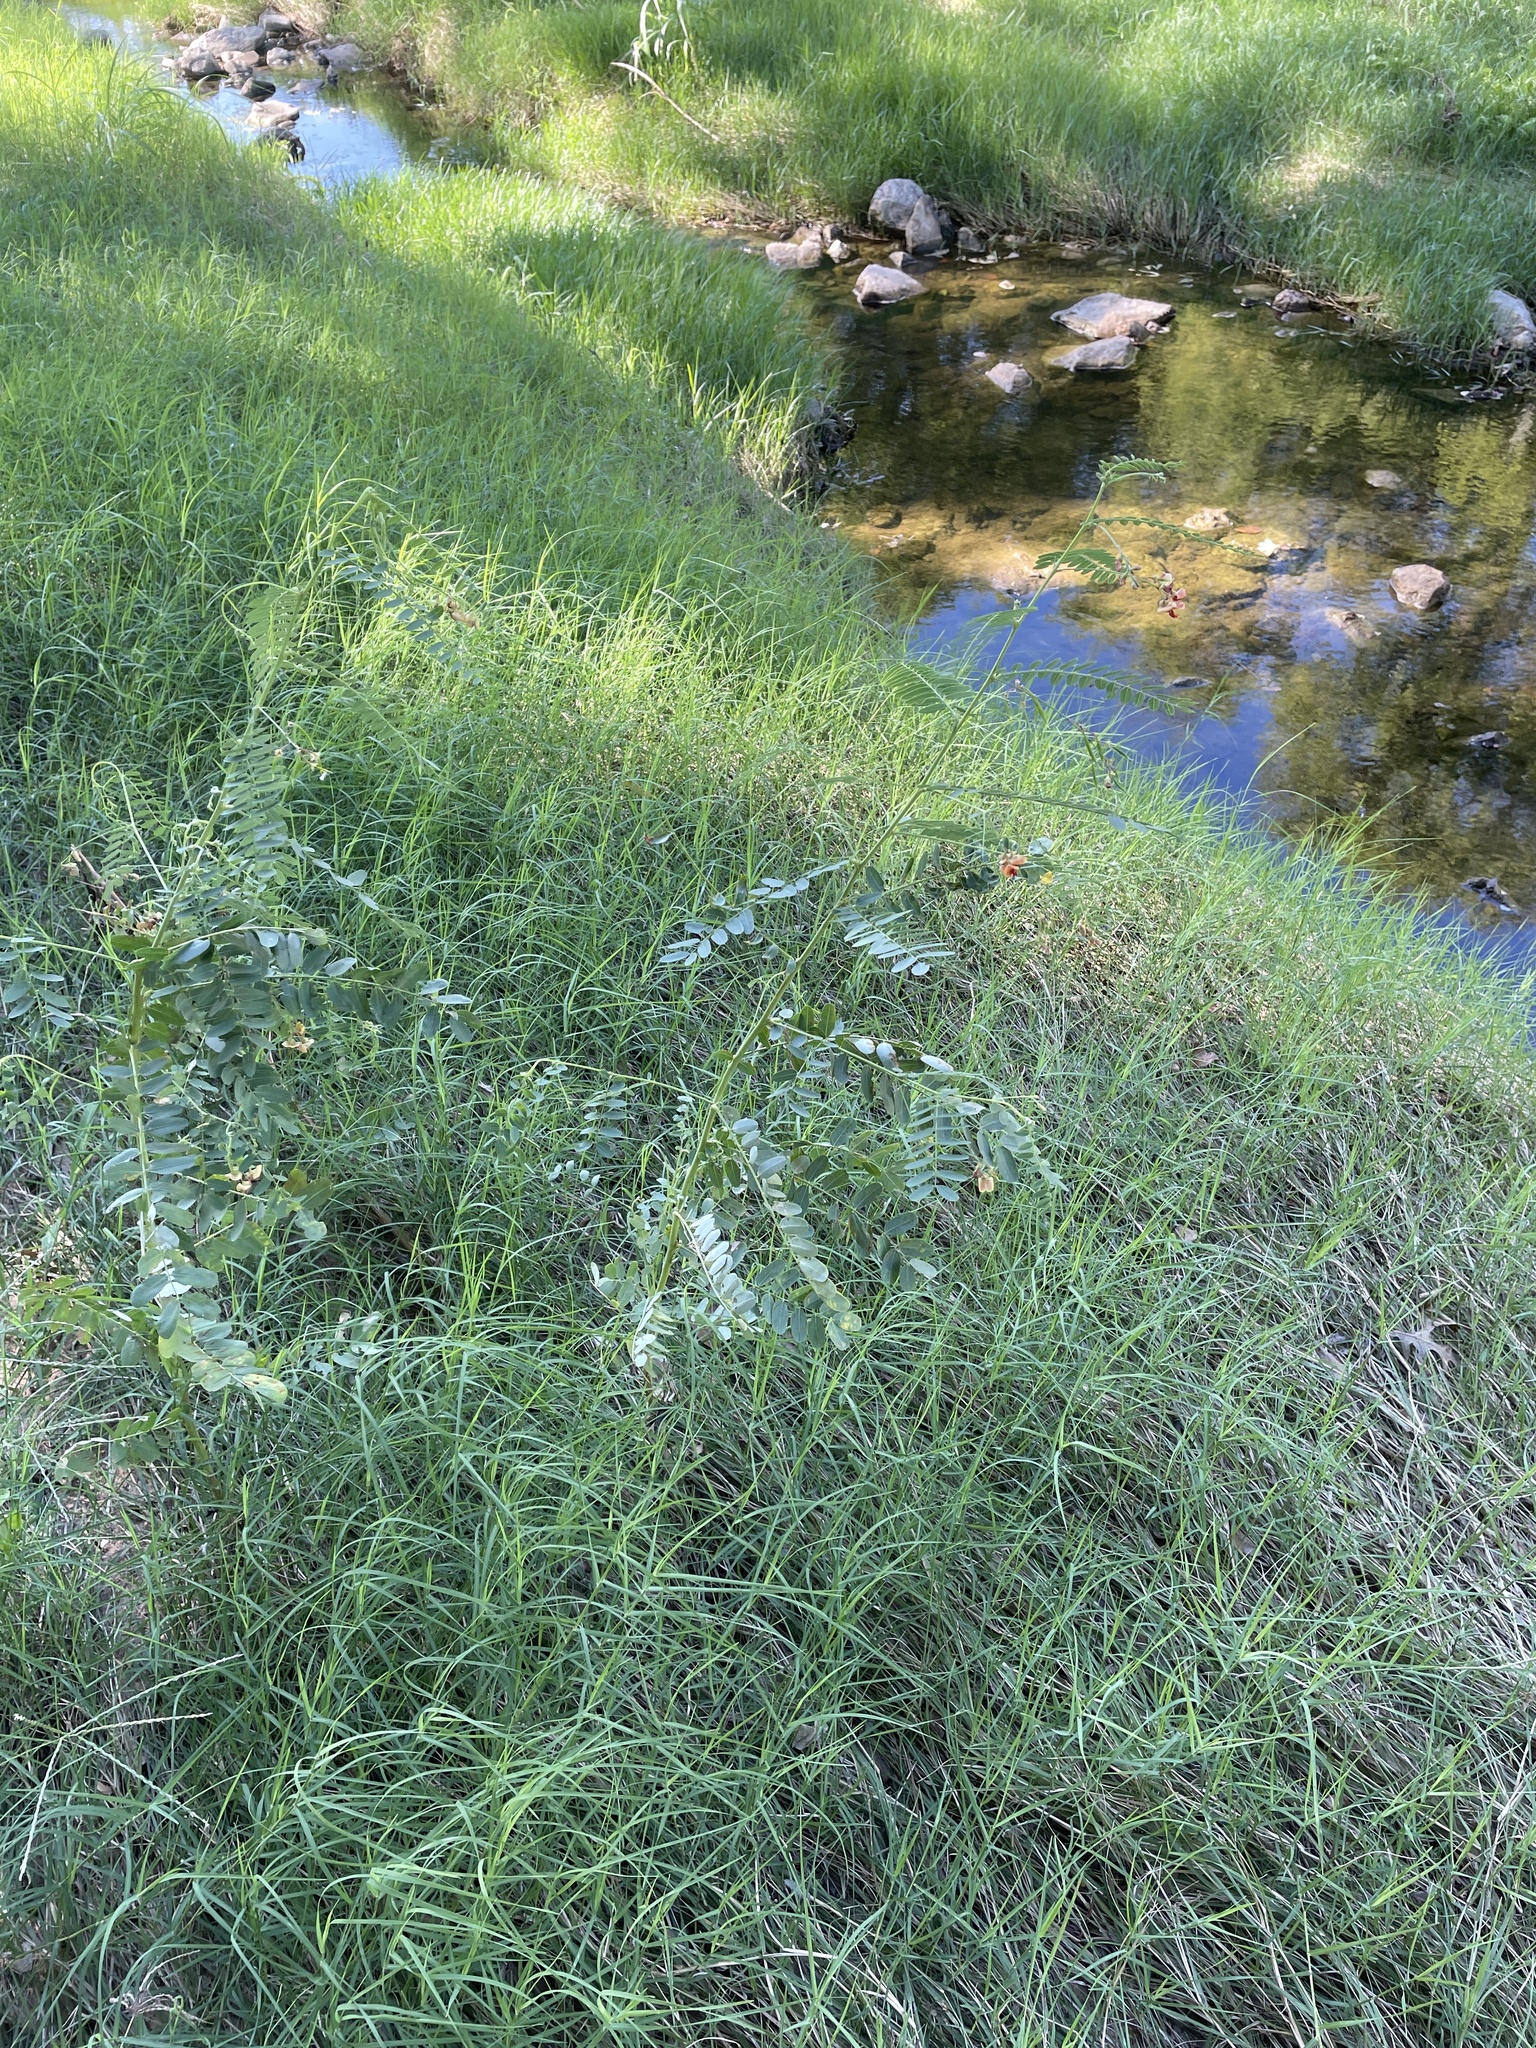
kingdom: Plantae
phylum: Tracheophyta
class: Magnoliopsida
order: Fabales
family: Fabaceae
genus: Sesbania
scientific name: Sesbania vesicaria
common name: Bagpod
